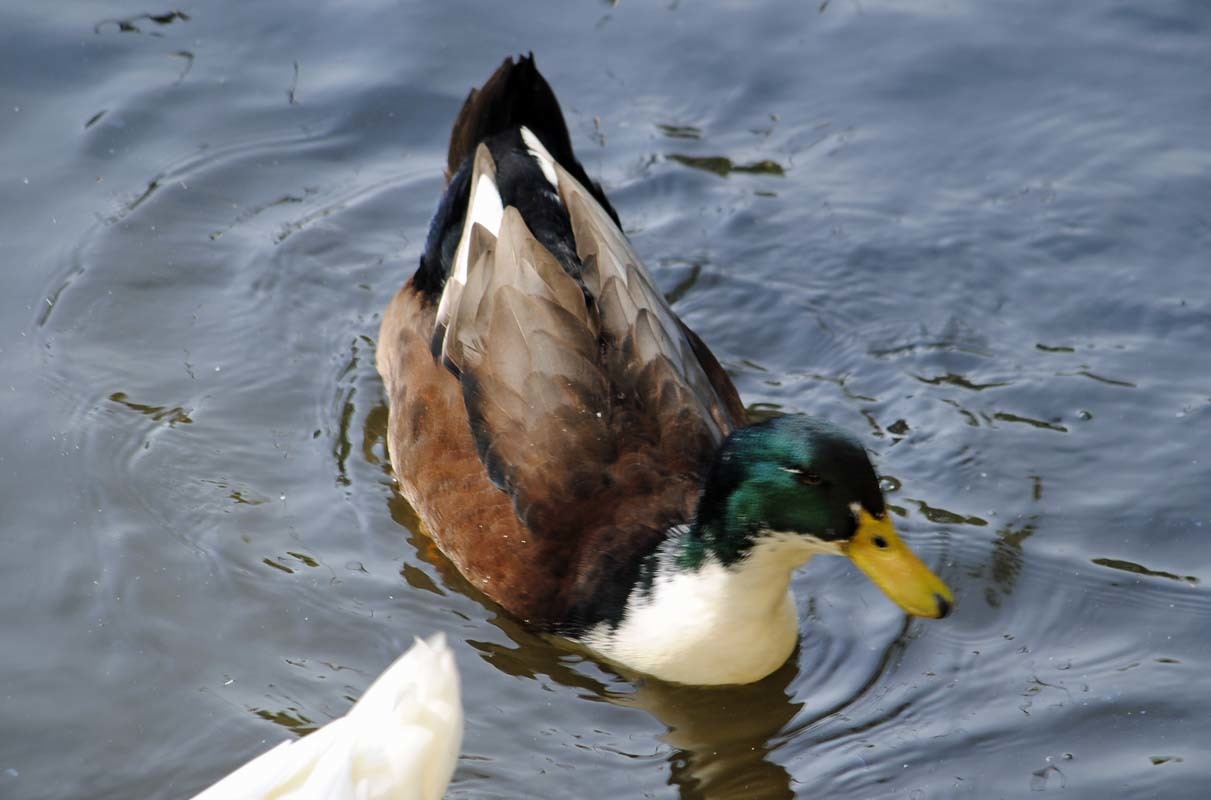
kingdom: Animalia
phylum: Chordata
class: Aves
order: Anseriformes
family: Anatidae
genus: Anas
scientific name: Anas platyrhynchos
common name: Mallard
